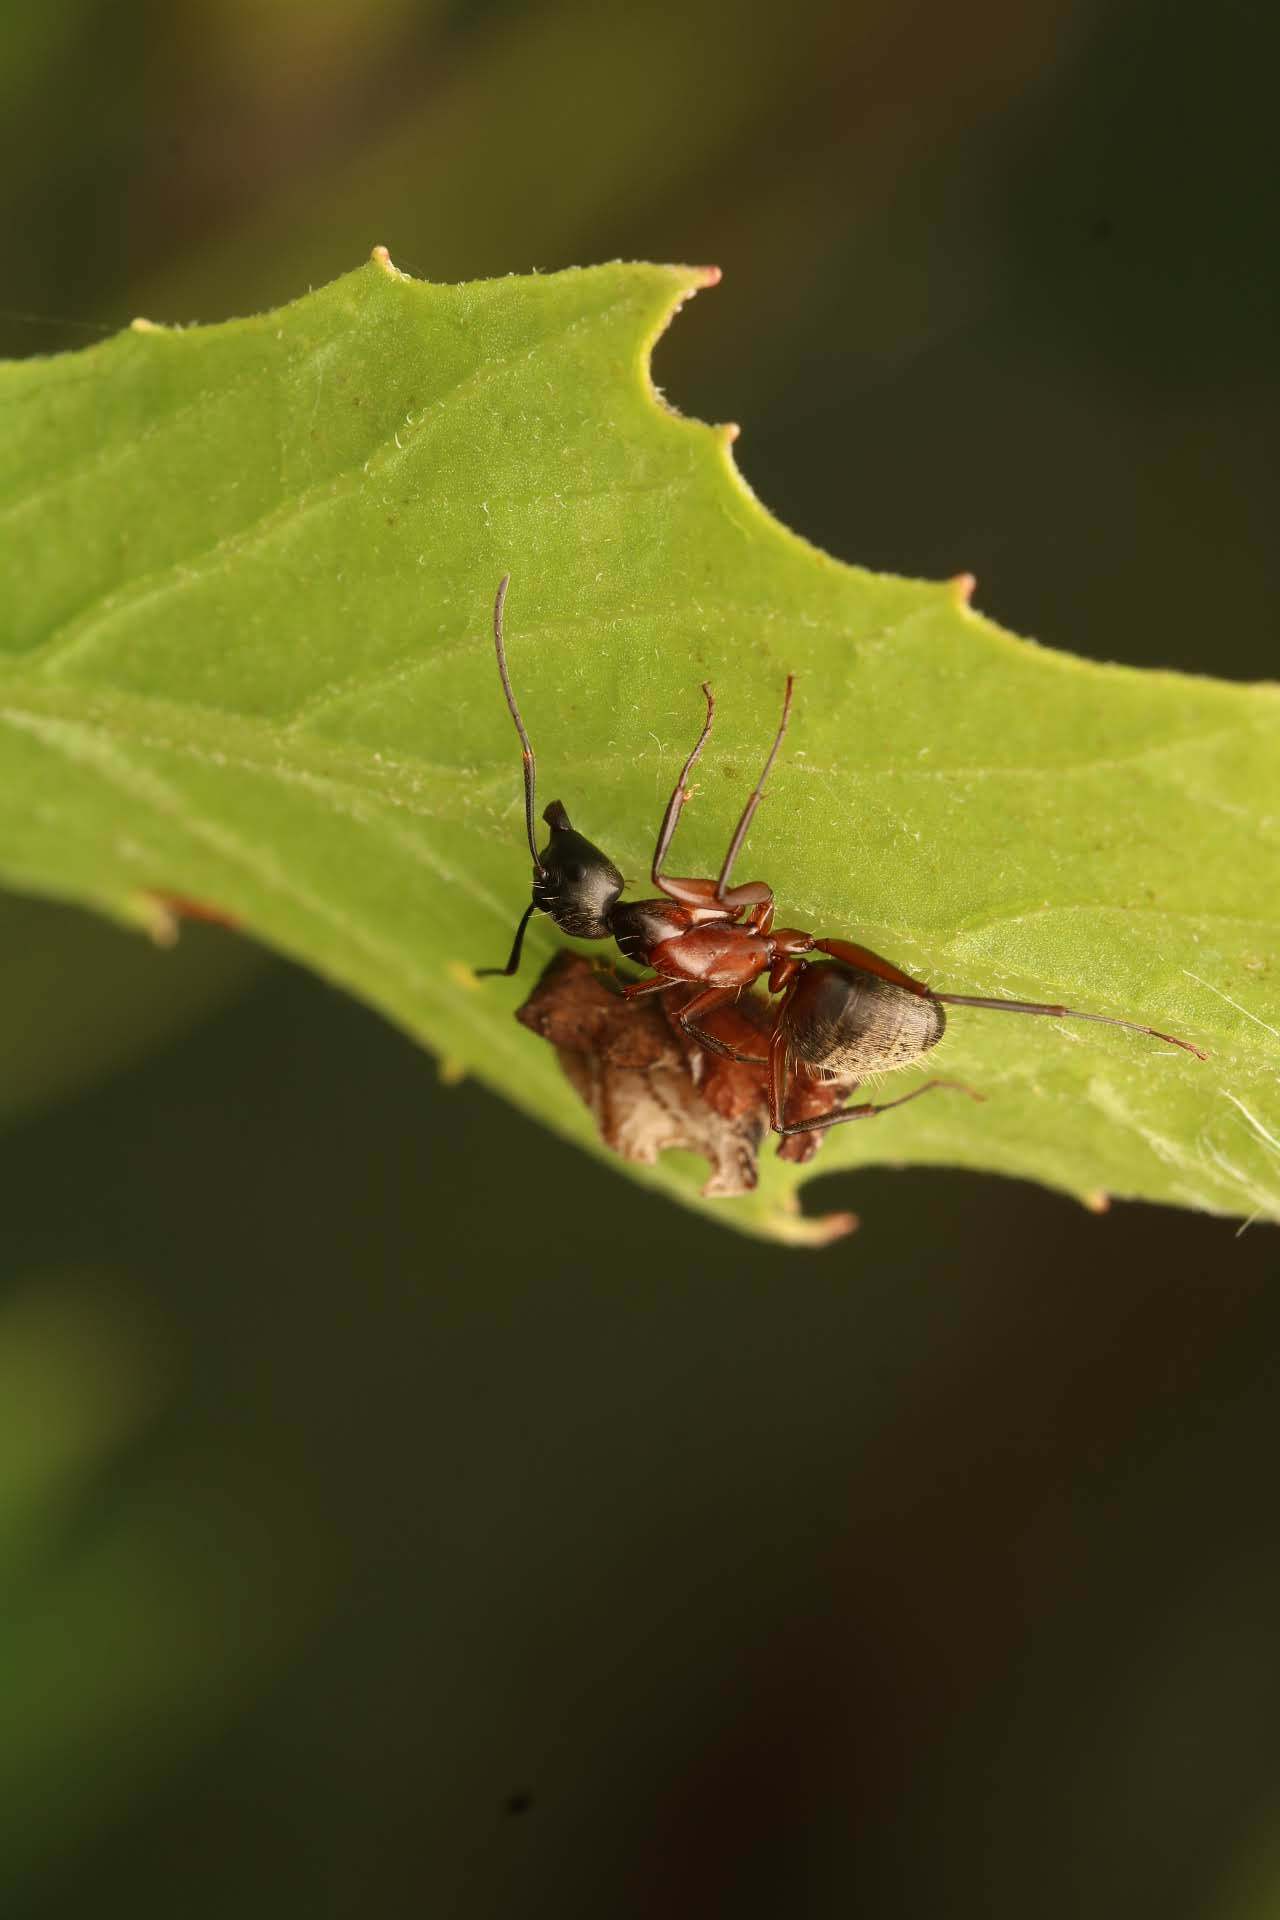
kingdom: Animalia
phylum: Arthropoda
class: Insecta
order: Hemiptera
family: Membracidae
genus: Entylia
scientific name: Entylia carinata
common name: Keeled treehopper
